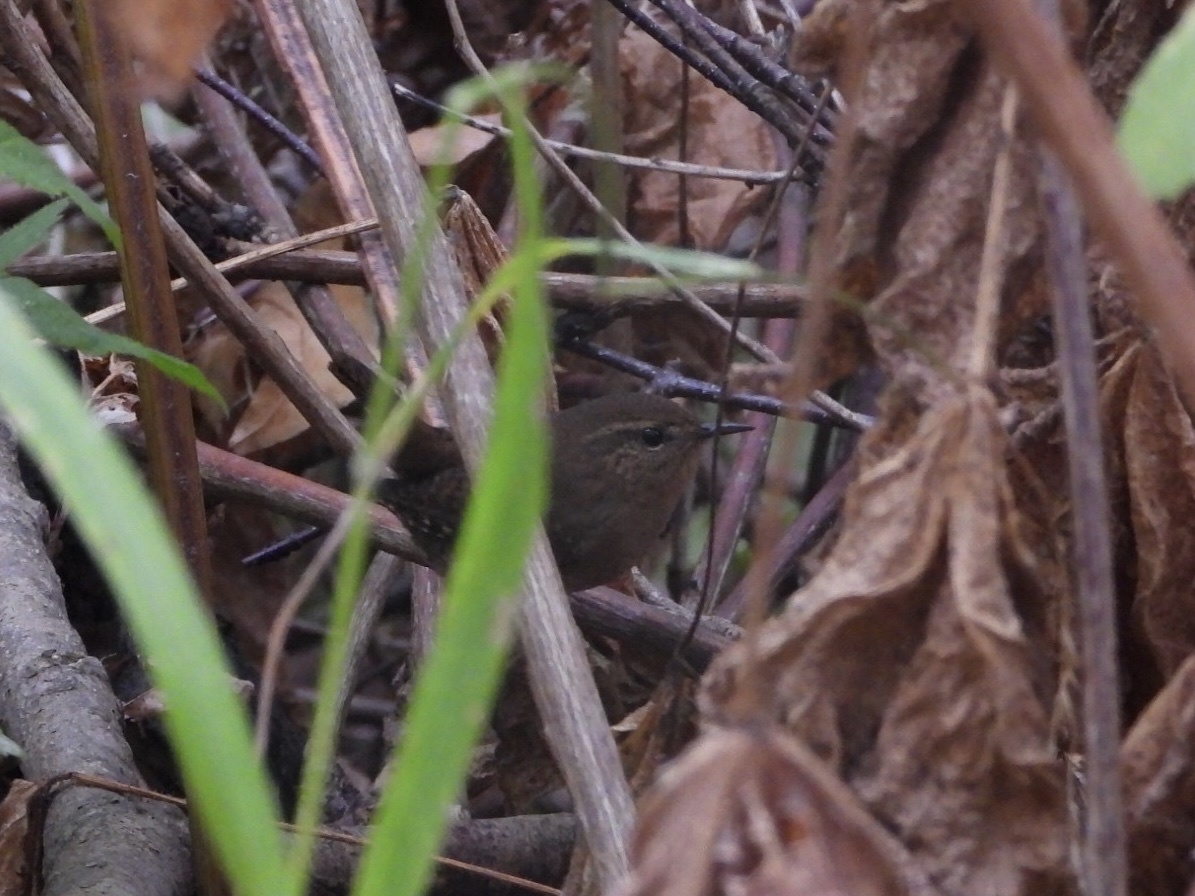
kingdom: Animalia
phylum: Chordata
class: Aves
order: Passeriformes
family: Troglodytidae
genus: Troglodytes
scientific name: Troglodytes pacificus
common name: Pacific wren
